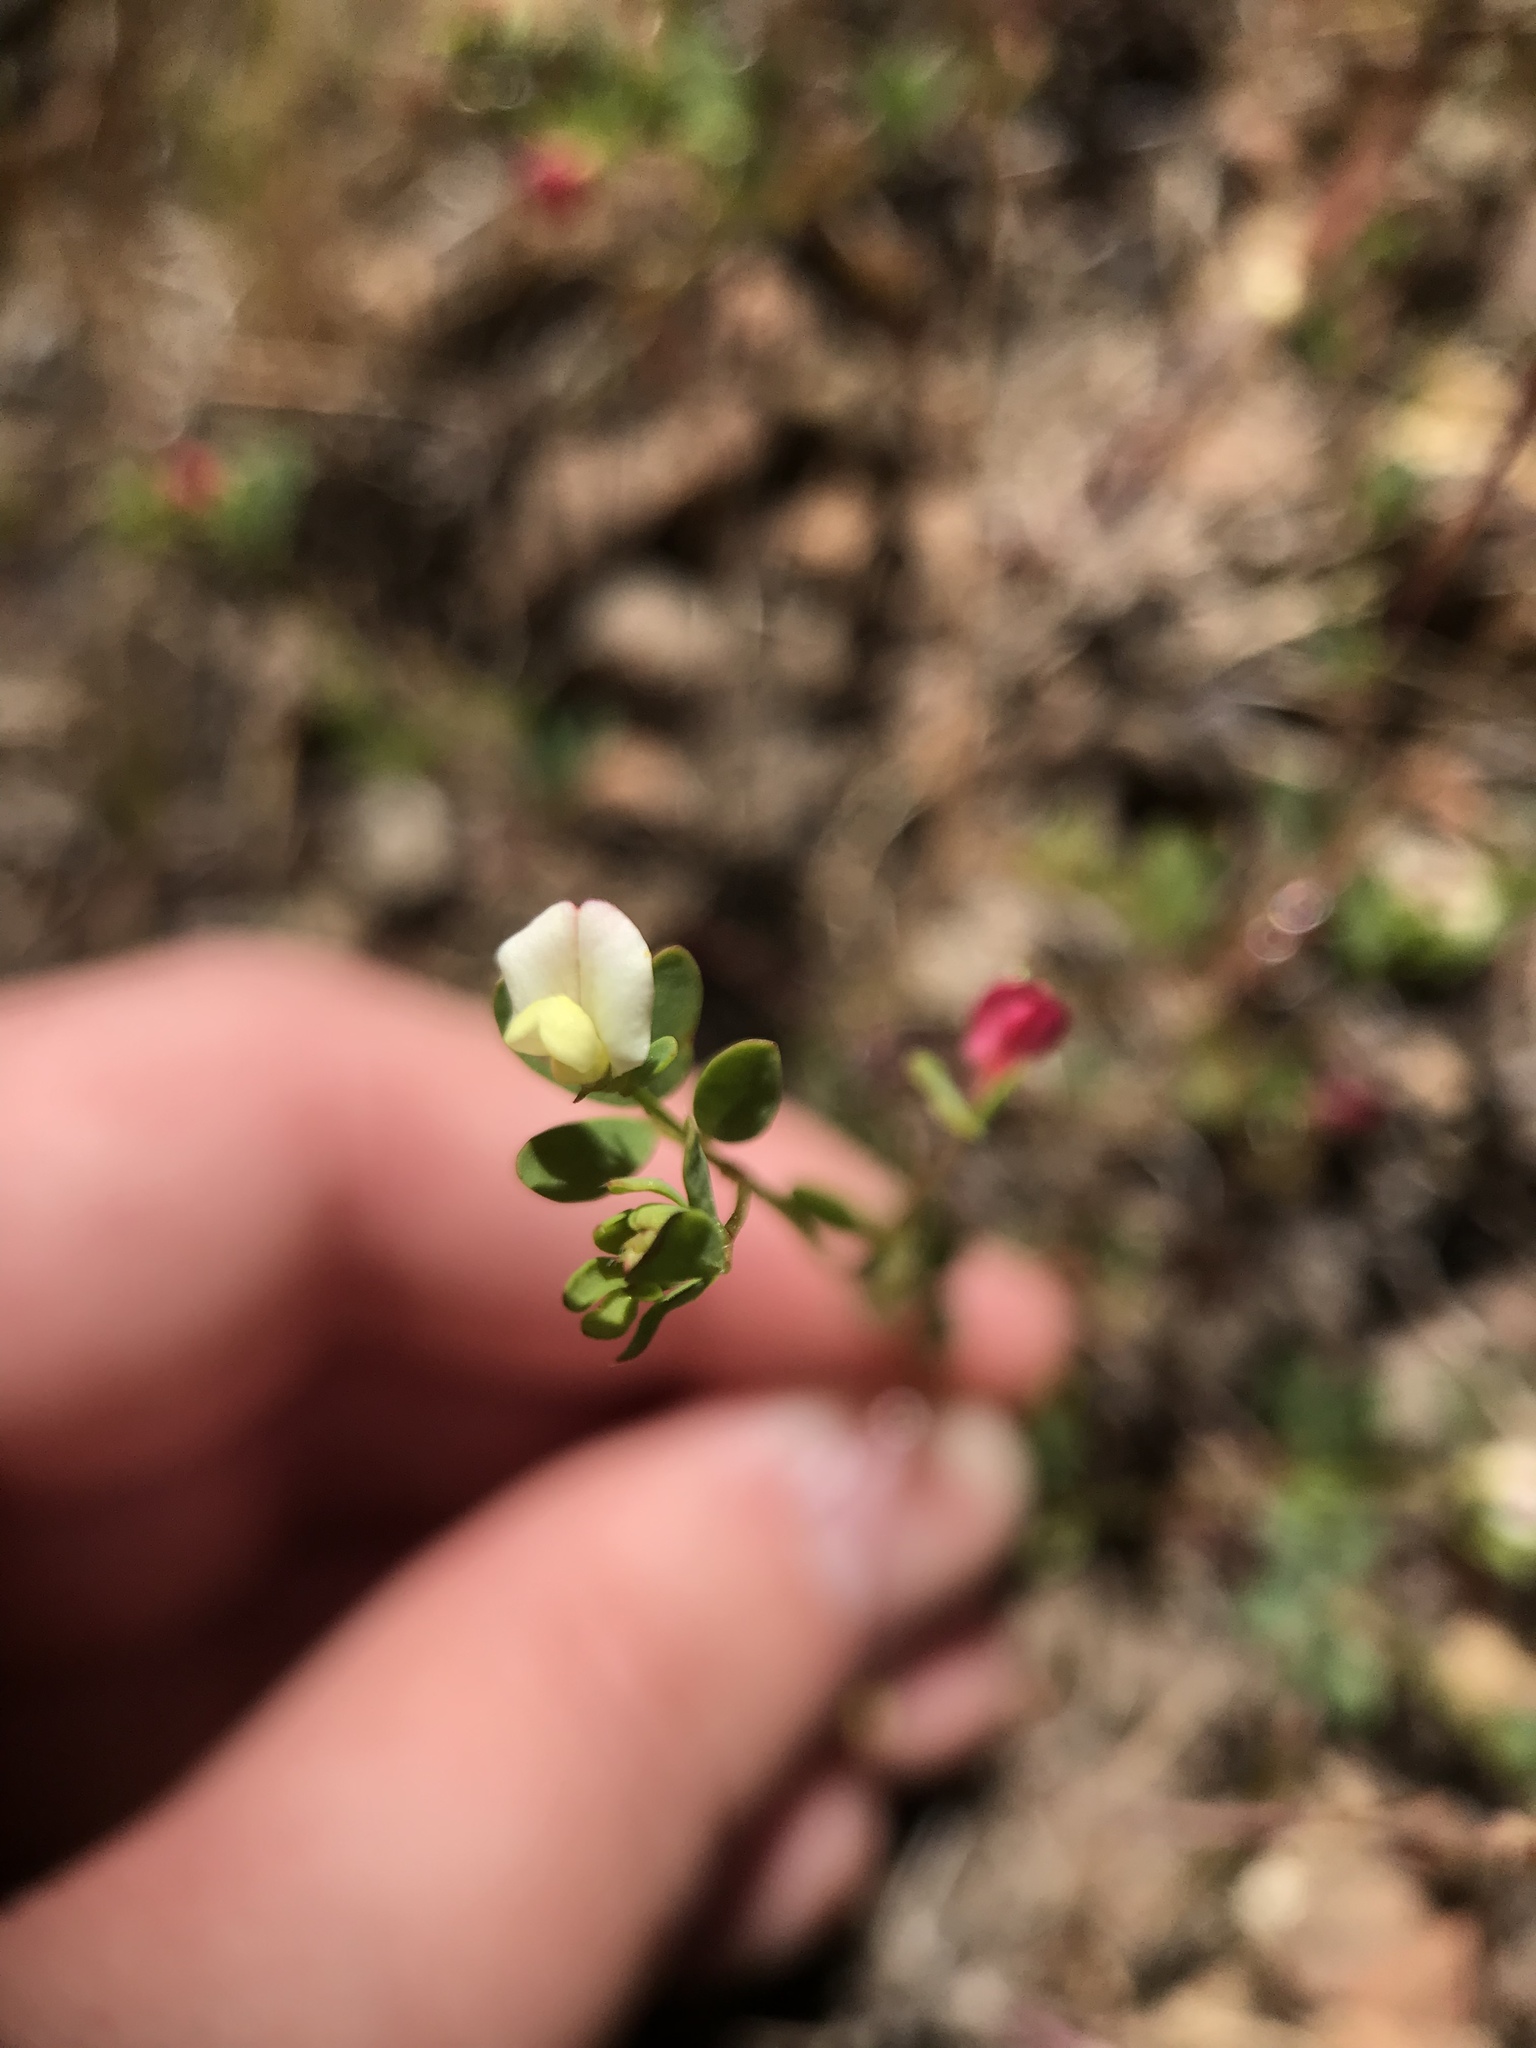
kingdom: Plantae
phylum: Tracheophyta
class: Magnoliopsida
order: Fabales
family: Fabaceae
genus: Acmispon
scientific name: Acmispon parviflorus
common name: Desert deer-vetch
